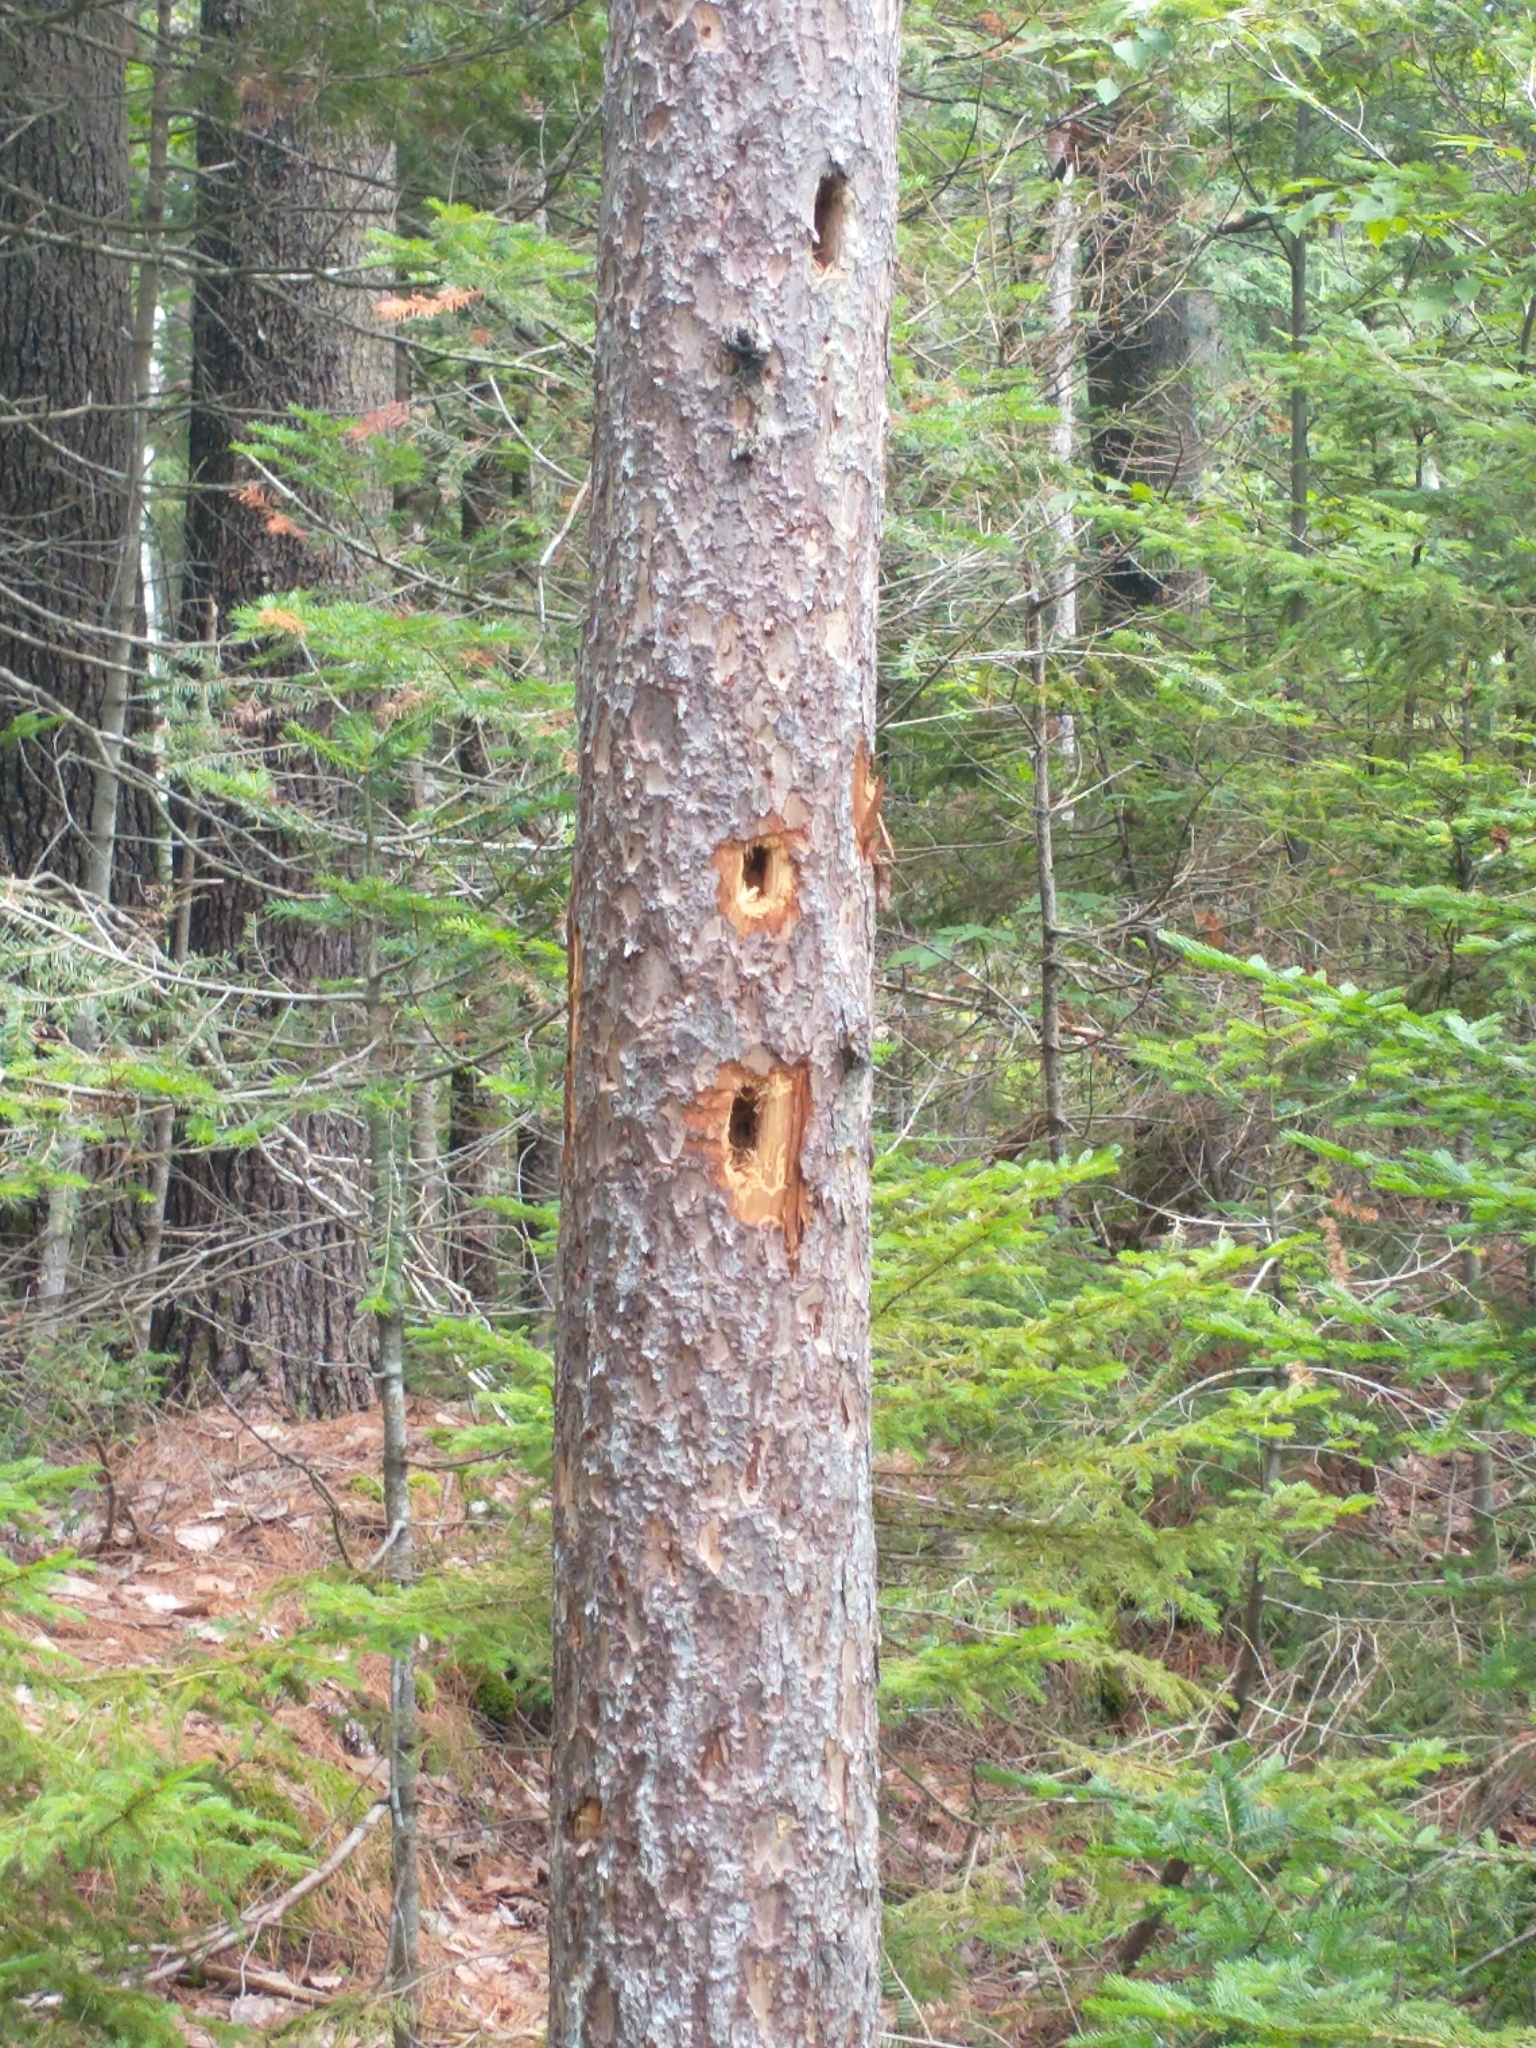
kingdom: Animalia
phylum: Chordata
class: Aves
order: Piciformes
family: Picidae
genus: Dryocopus
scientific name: Dryocopus pileatus
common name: Pileated woodpecker
